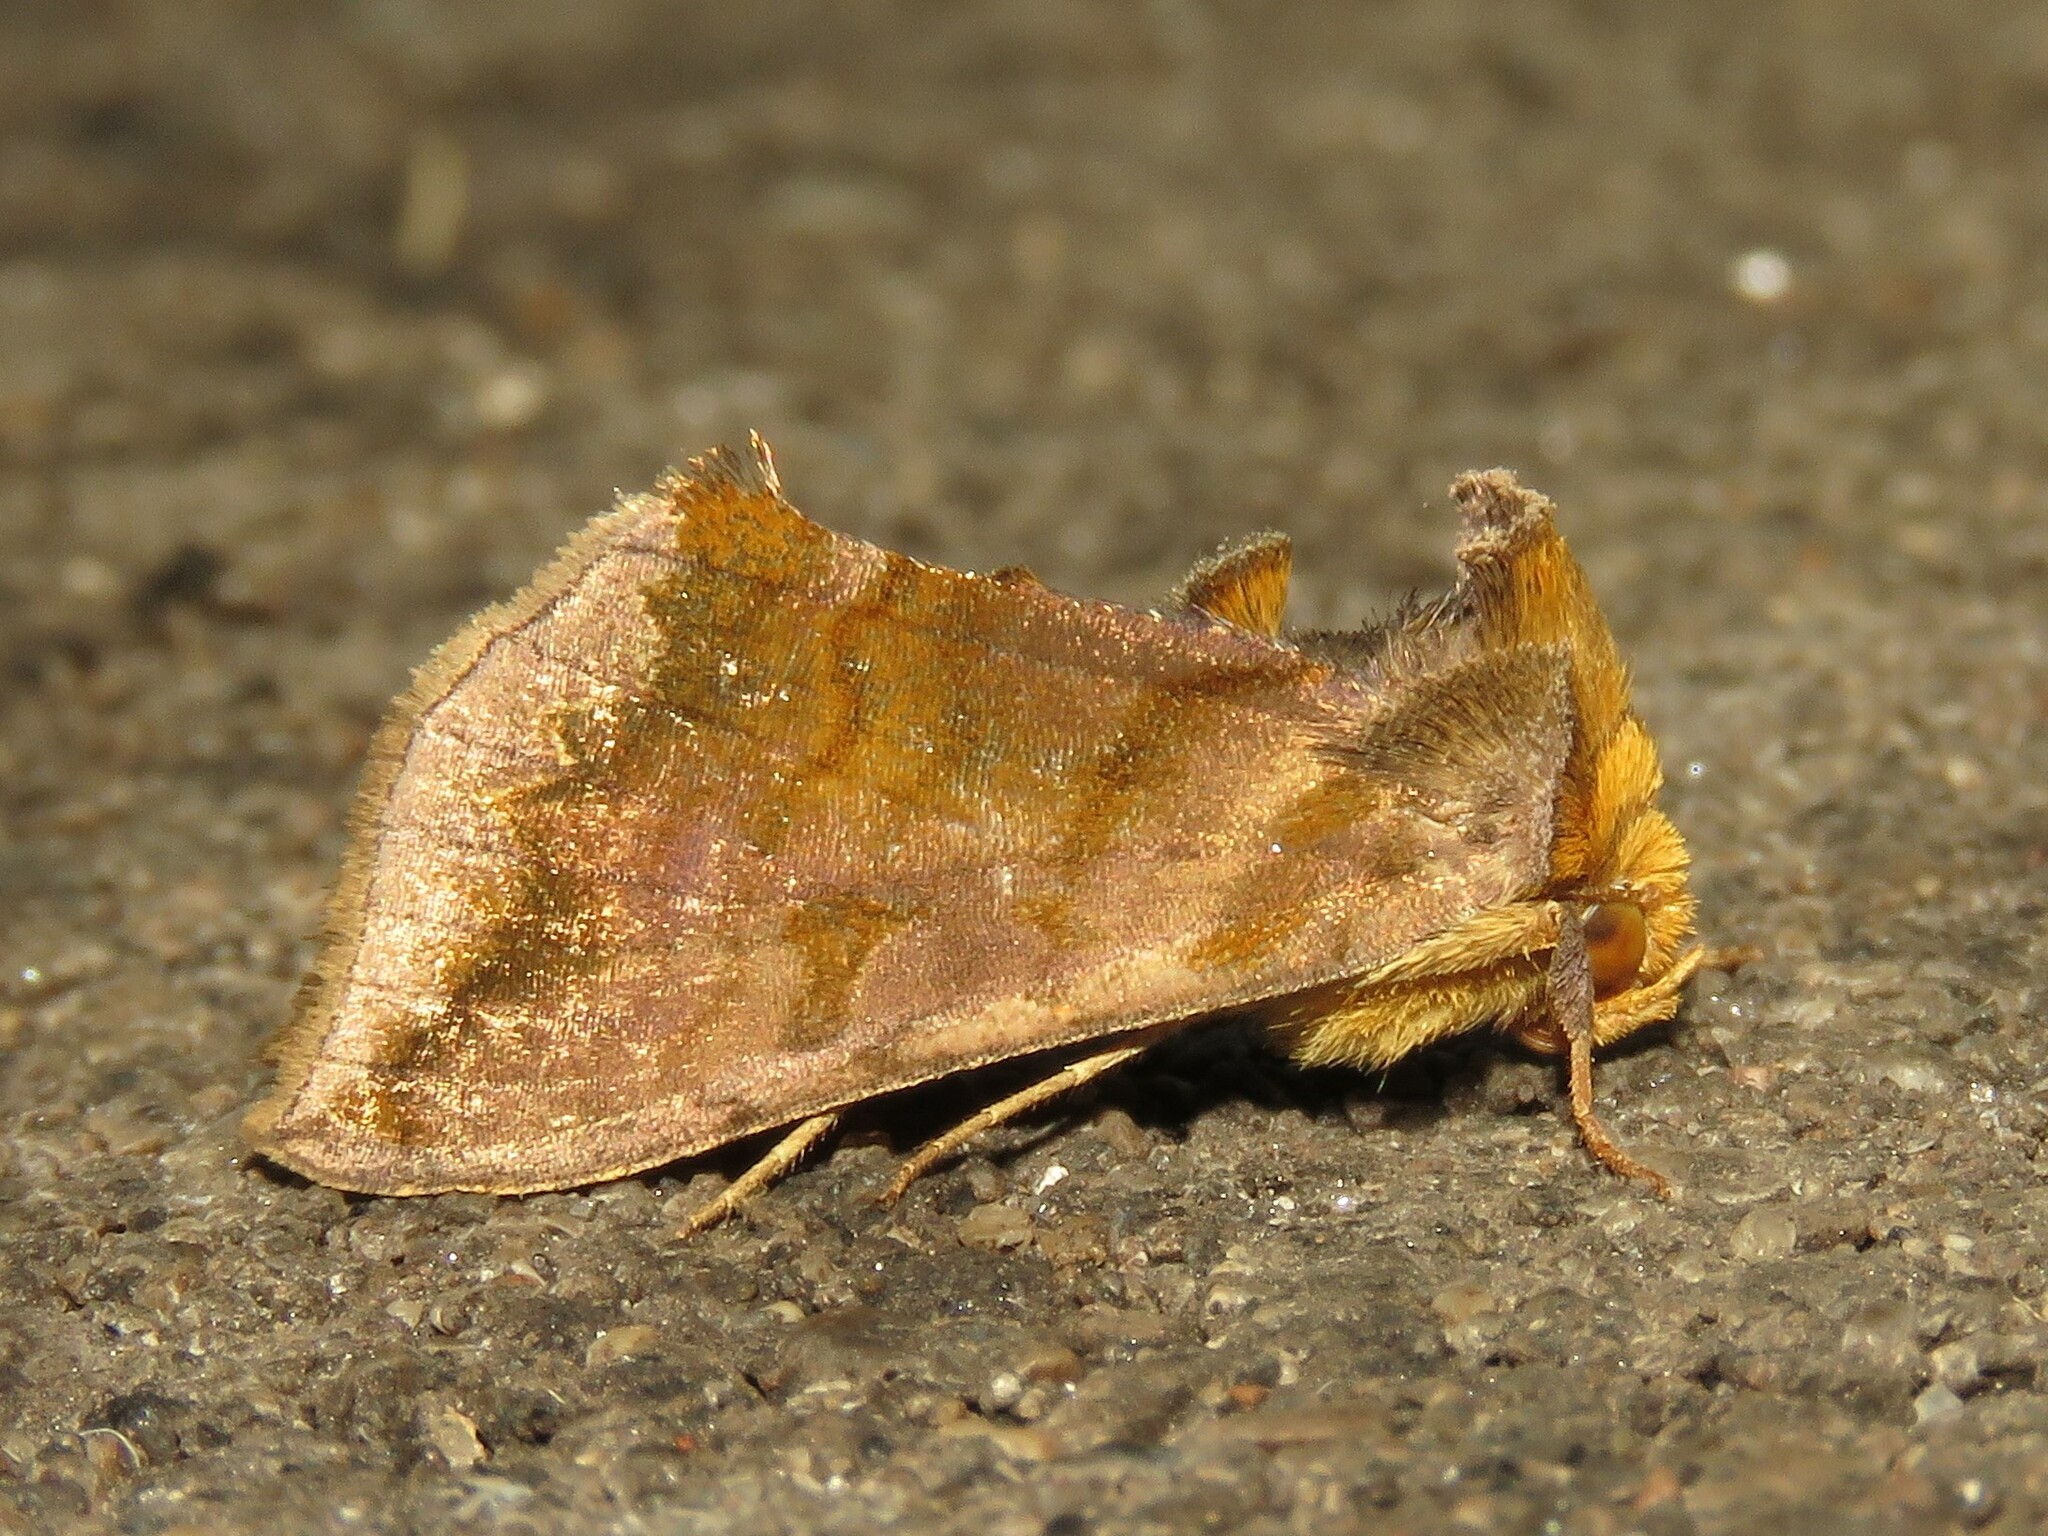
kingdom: Animalia
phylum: Arthropoda
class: Insecta
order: Lepidoptera
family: Noctuidae
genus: Allagrapha
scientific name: Allagrapha aerea
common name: Unspotted looper moth
